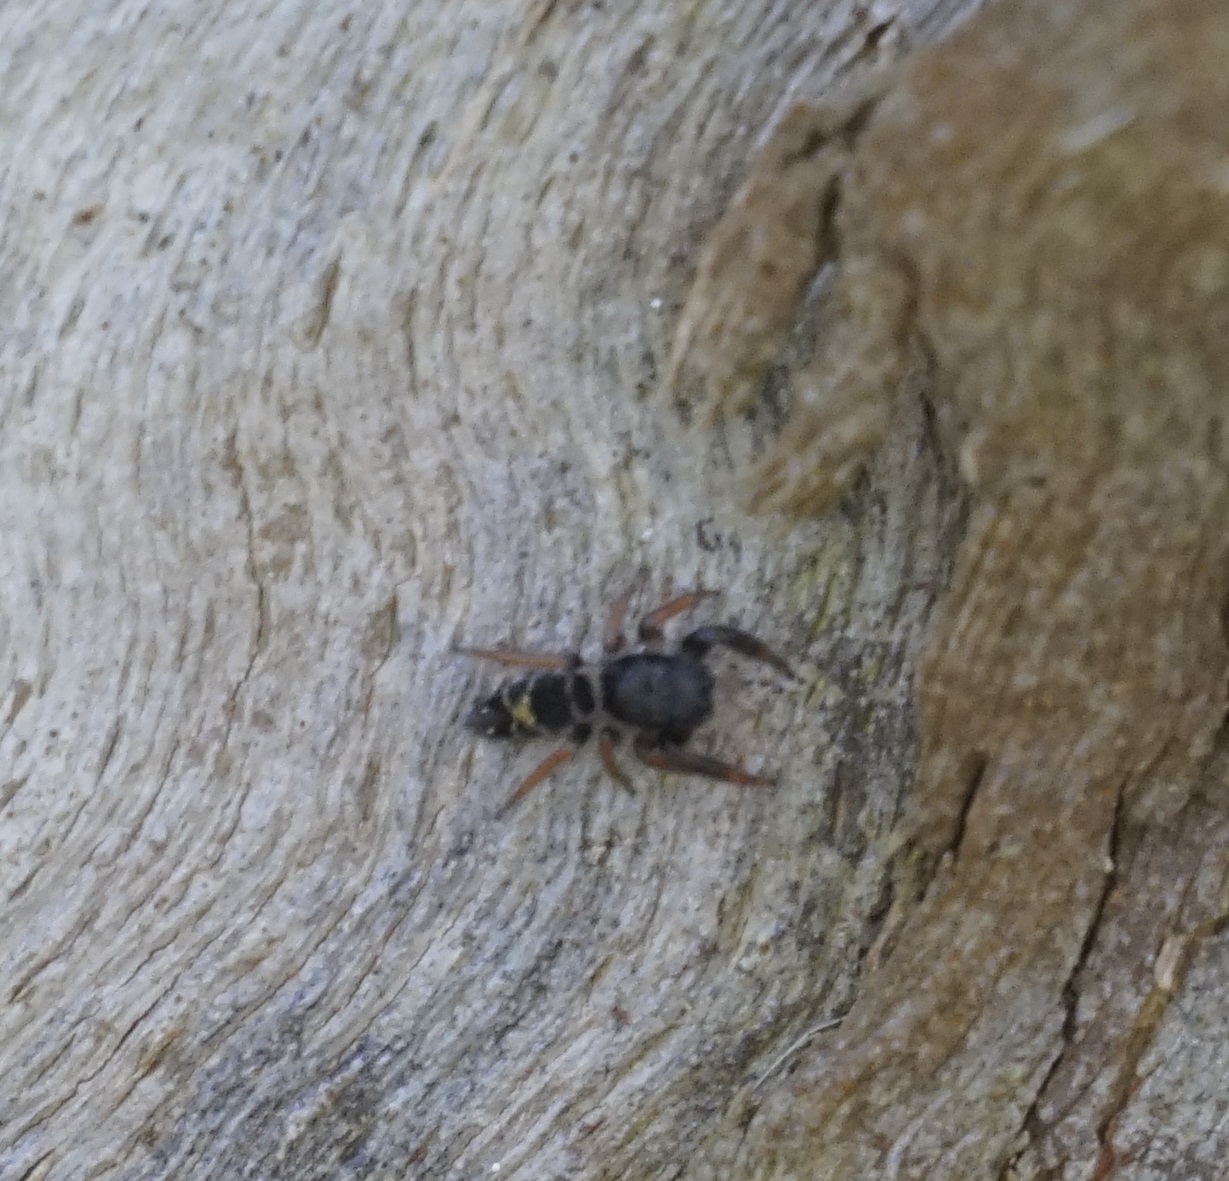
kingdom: Animalia
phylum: Arthropoda
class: Arachnida
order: Araneae
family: Salticidae
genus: Apricia
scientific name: Apricia jovialis
